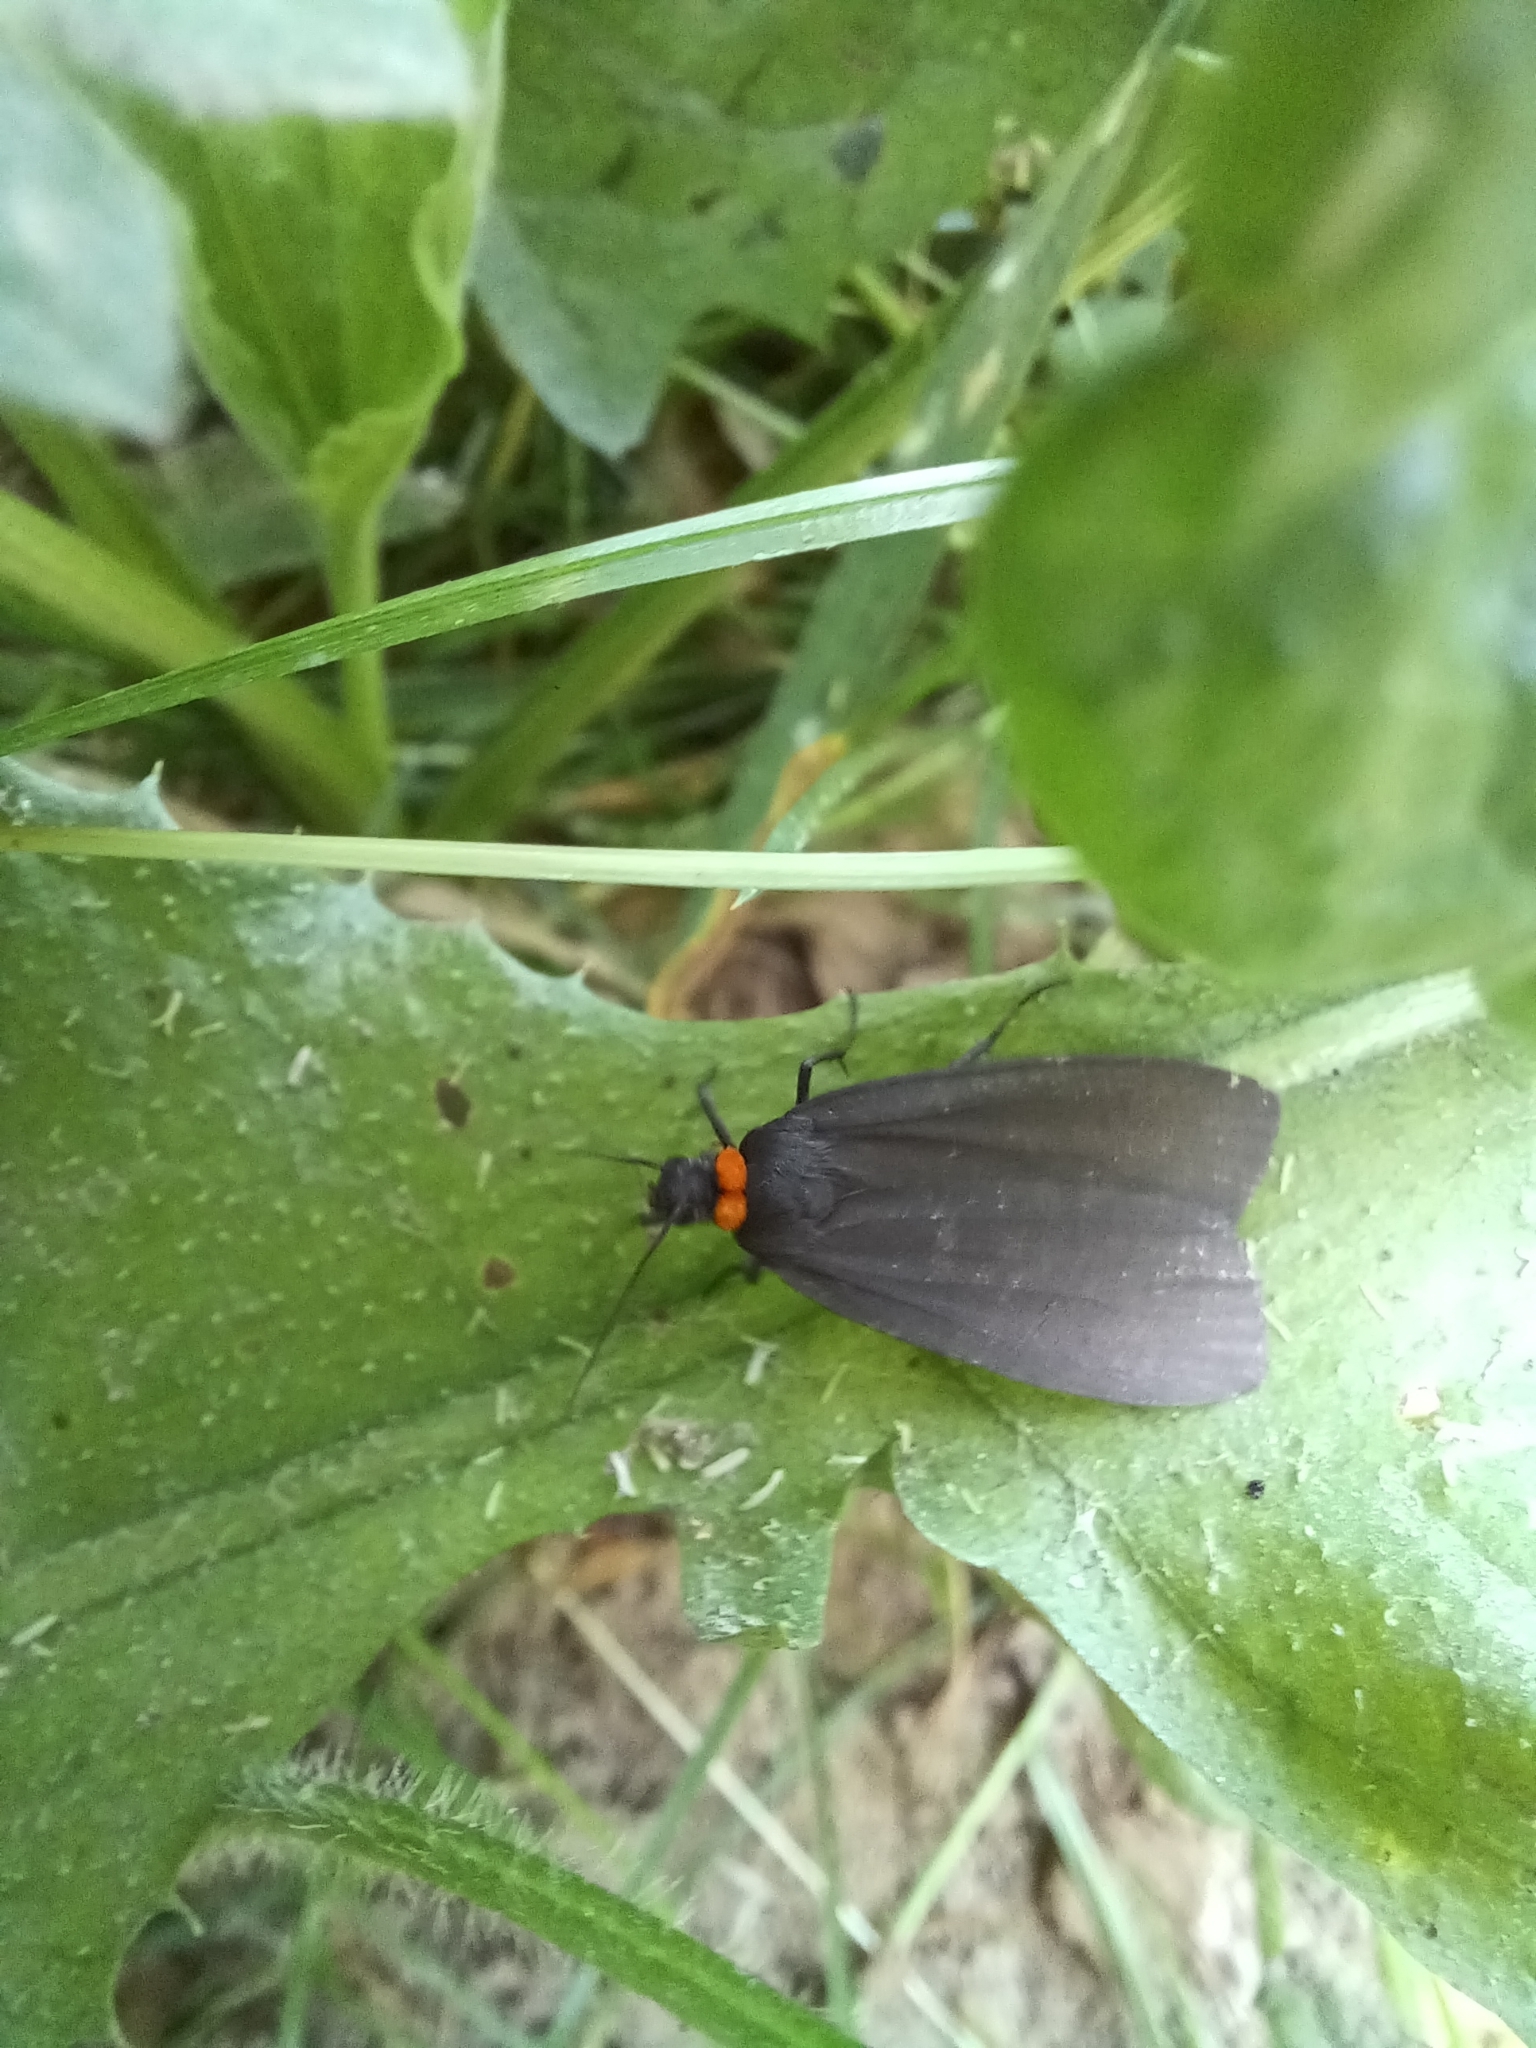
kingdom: Animalia
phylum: Arthropoda
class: Insecta
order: Lepidoptera
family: Erebidae
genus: Atolmis
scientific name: Atolmis rubricollis
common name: Red-necked footman
